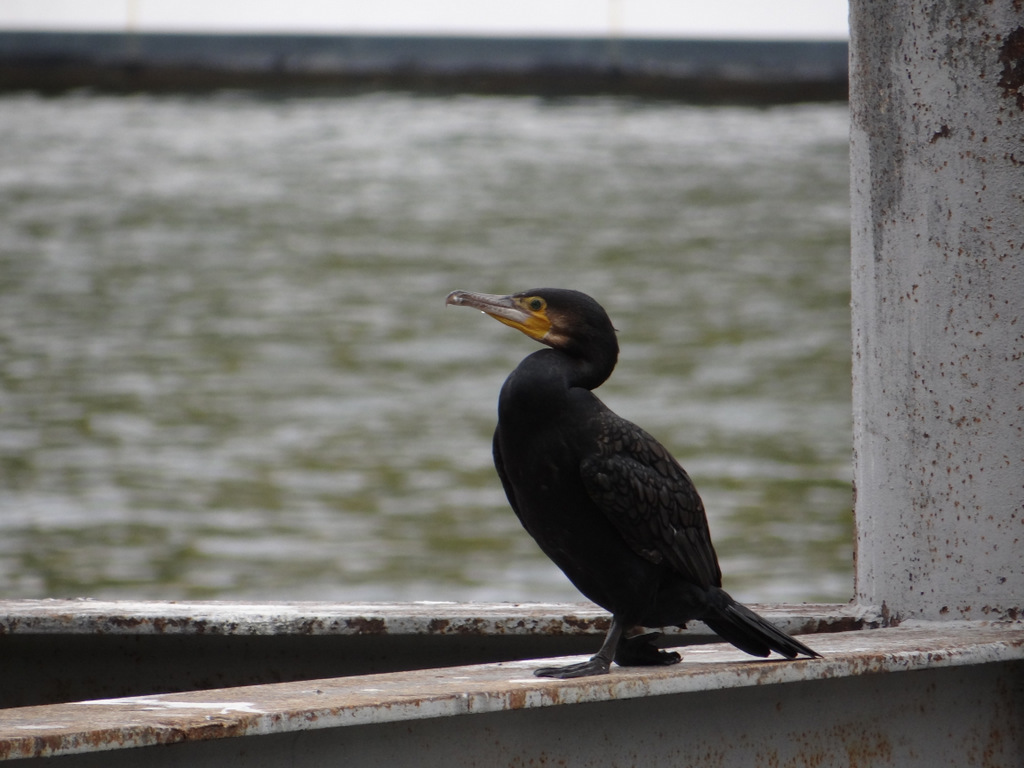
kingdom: Animalia
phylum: Chordata
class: Aves
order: Suliformes
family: Phalacrocoracidae
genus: Phalacrocorax
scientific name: Phalacrocorax carbo
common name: Great cormorant
